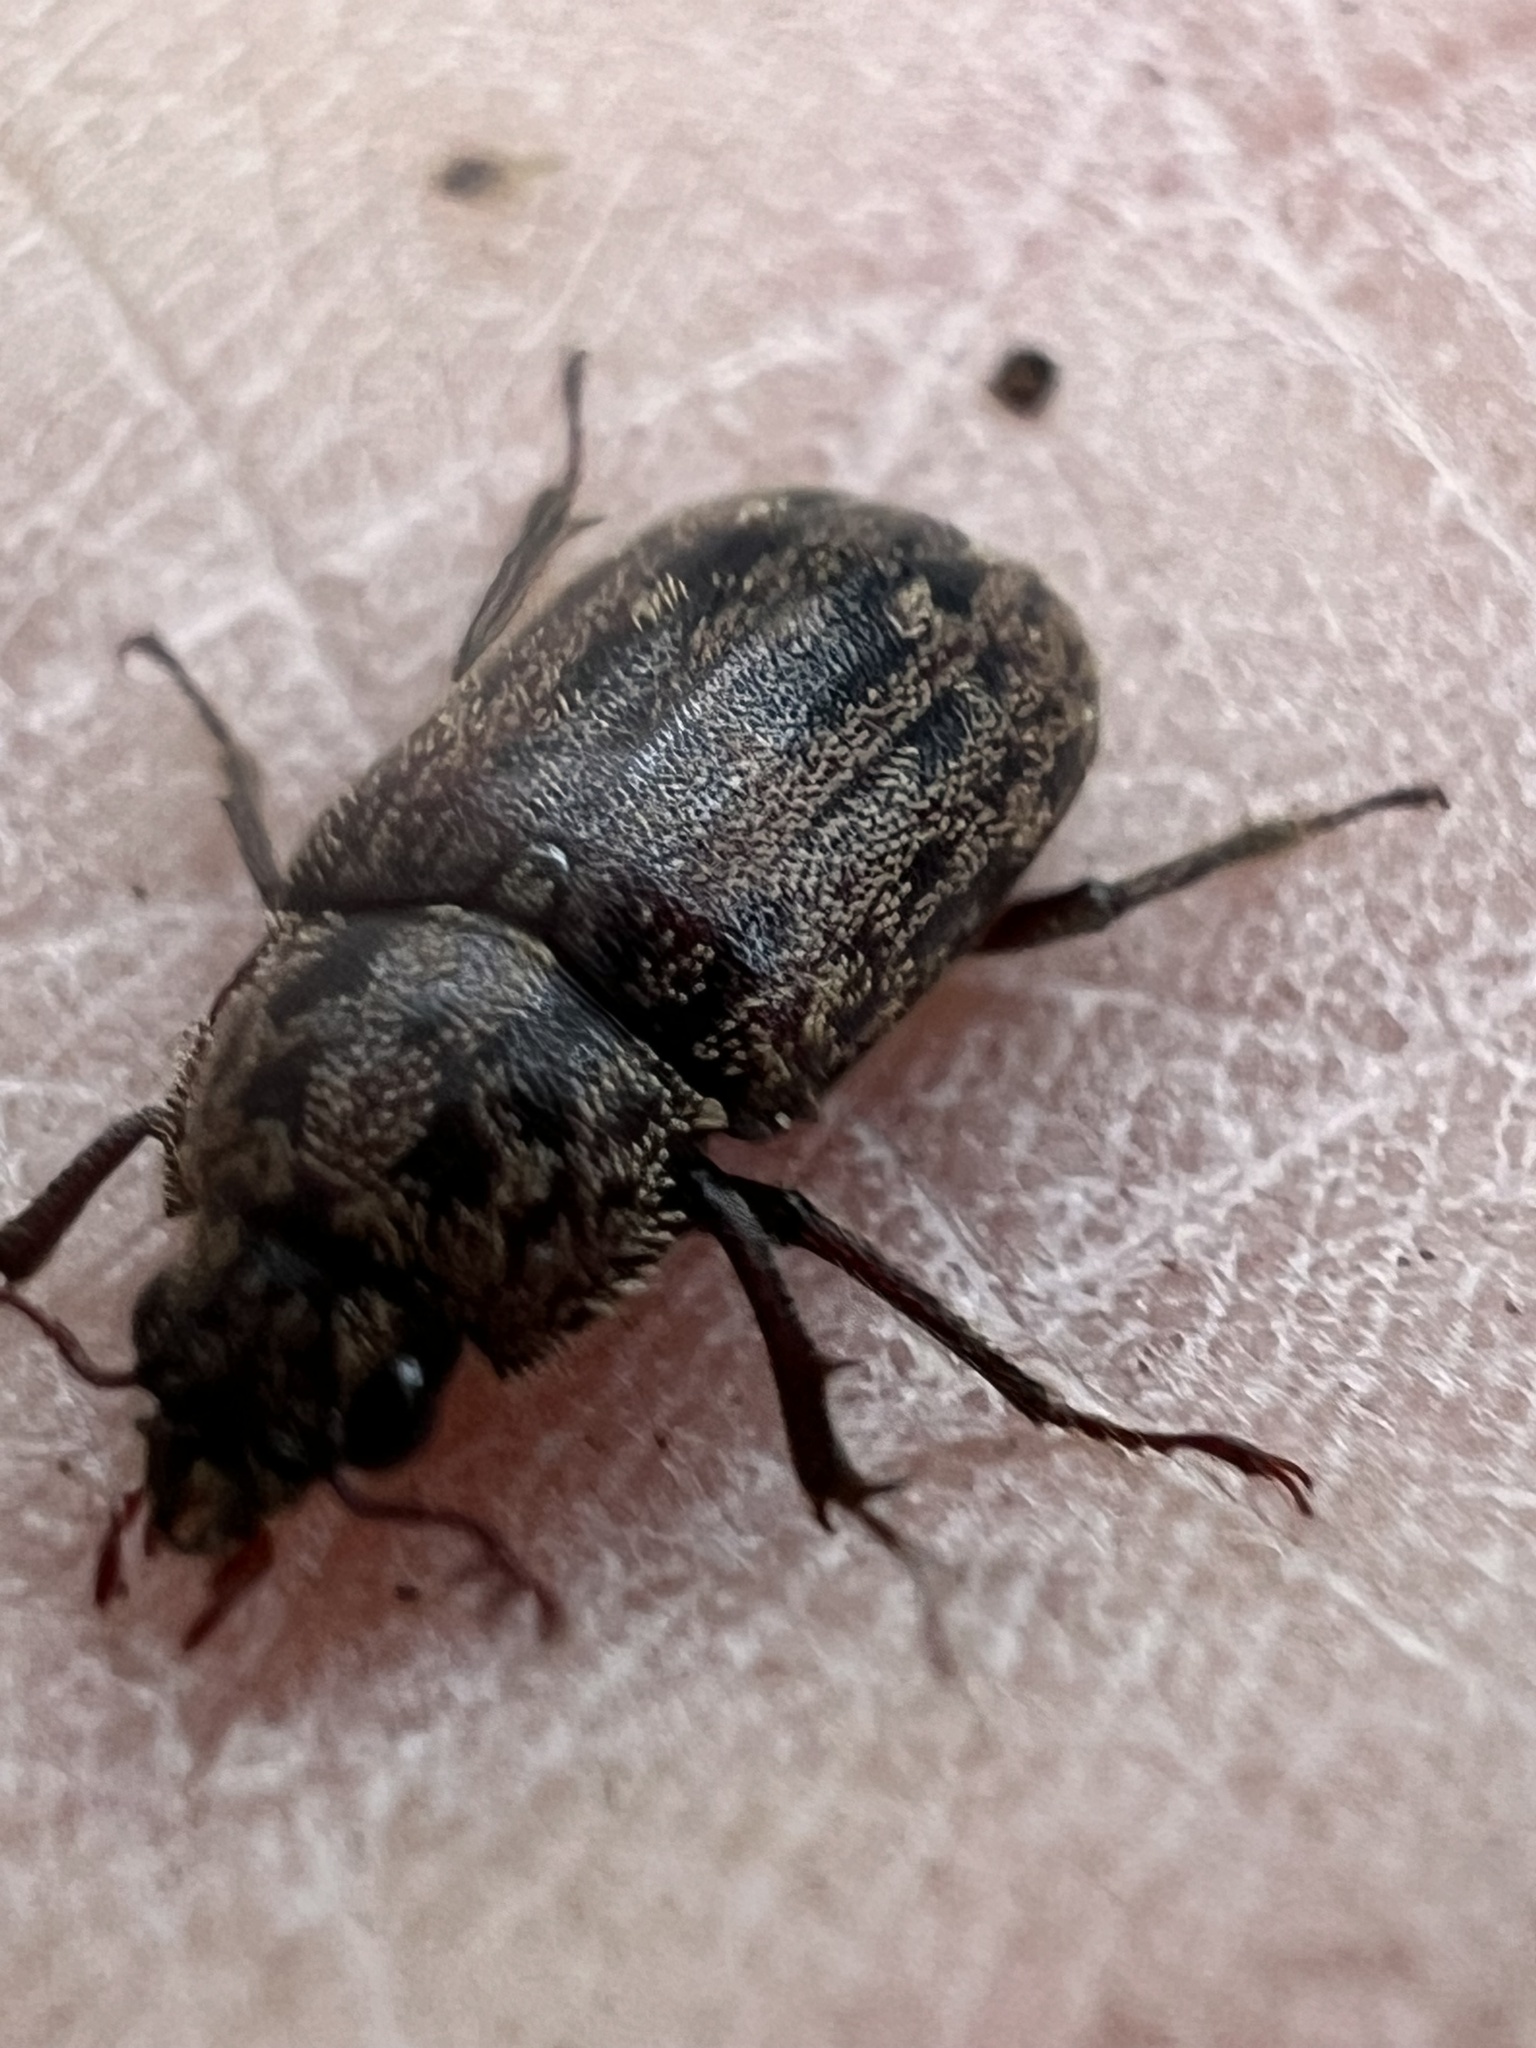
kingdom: Animalia
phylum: Arthropoda
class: Insecta
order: Coleoptera
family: Lucanidae
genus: Mitophyllus
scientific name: Mitophyllus irroratus
